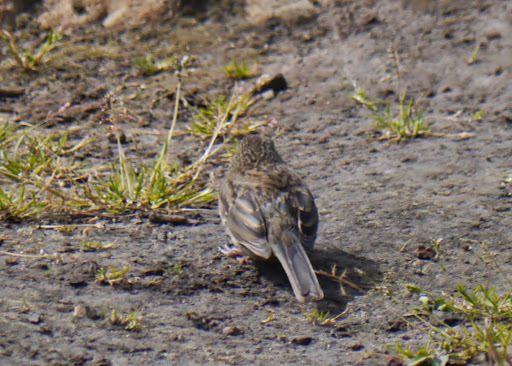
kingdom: Animalia
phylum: Chordata
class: Aves
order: Passeriformes
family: Passerellidae
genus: Junco
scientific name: Junco hyemalis
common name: Dark-eyed junco
